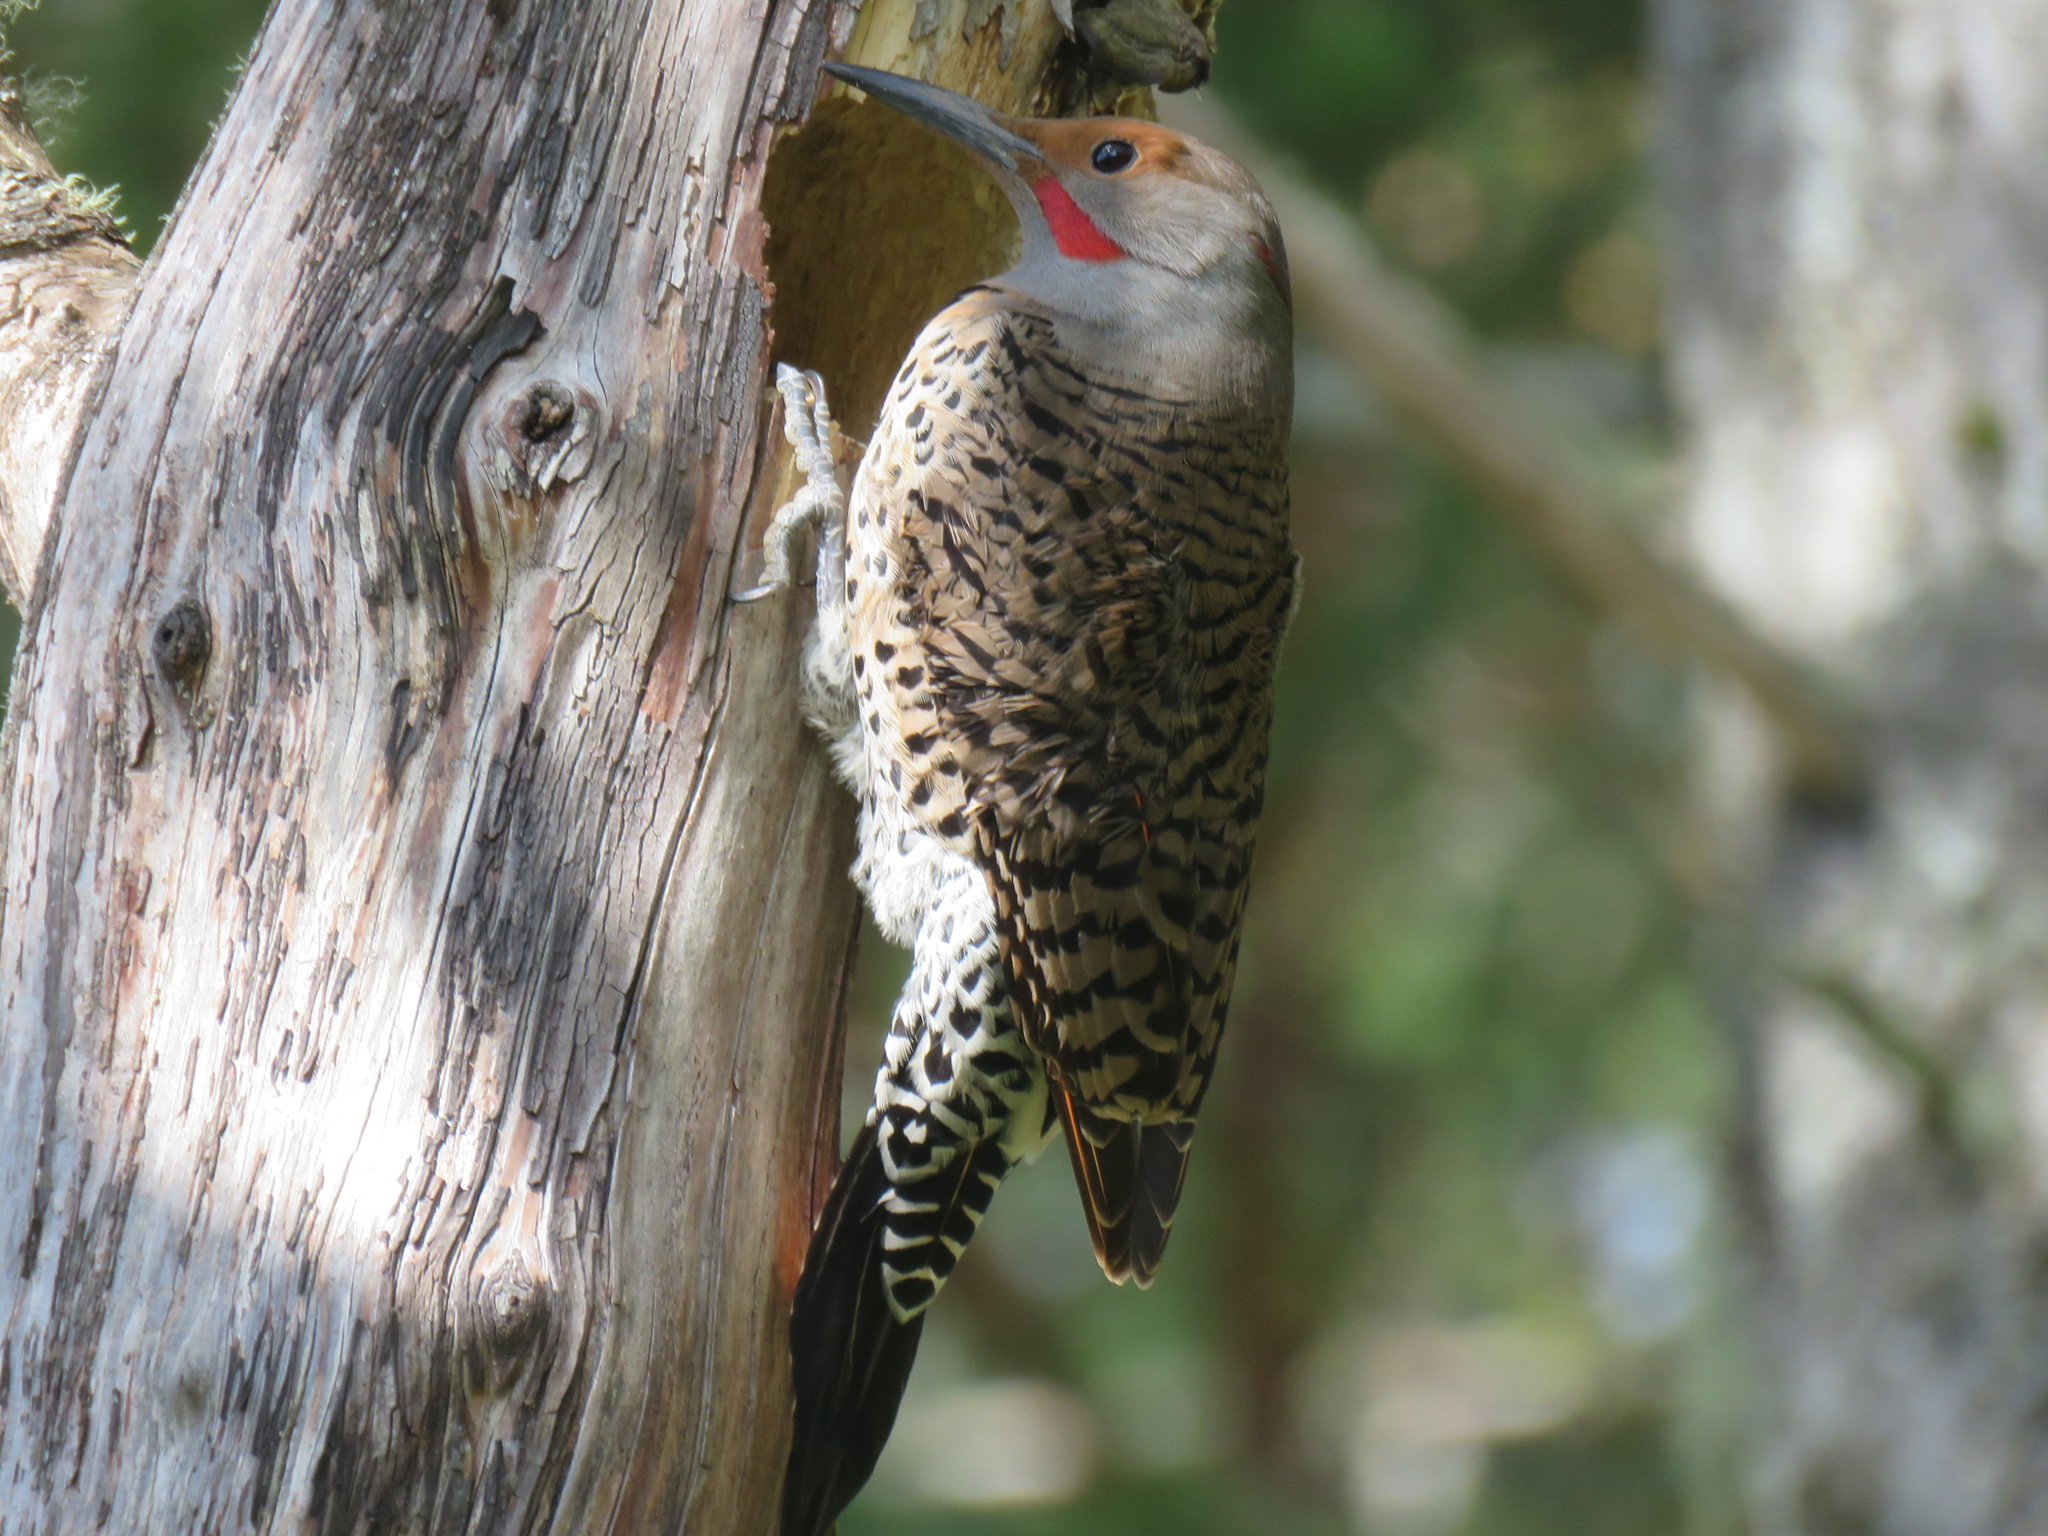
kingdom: Animalia
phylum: Chordata
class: Aves
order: Piciformes
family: Picidae
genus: Colaptes
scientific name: Colaptes auratus
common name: Northern flicker
